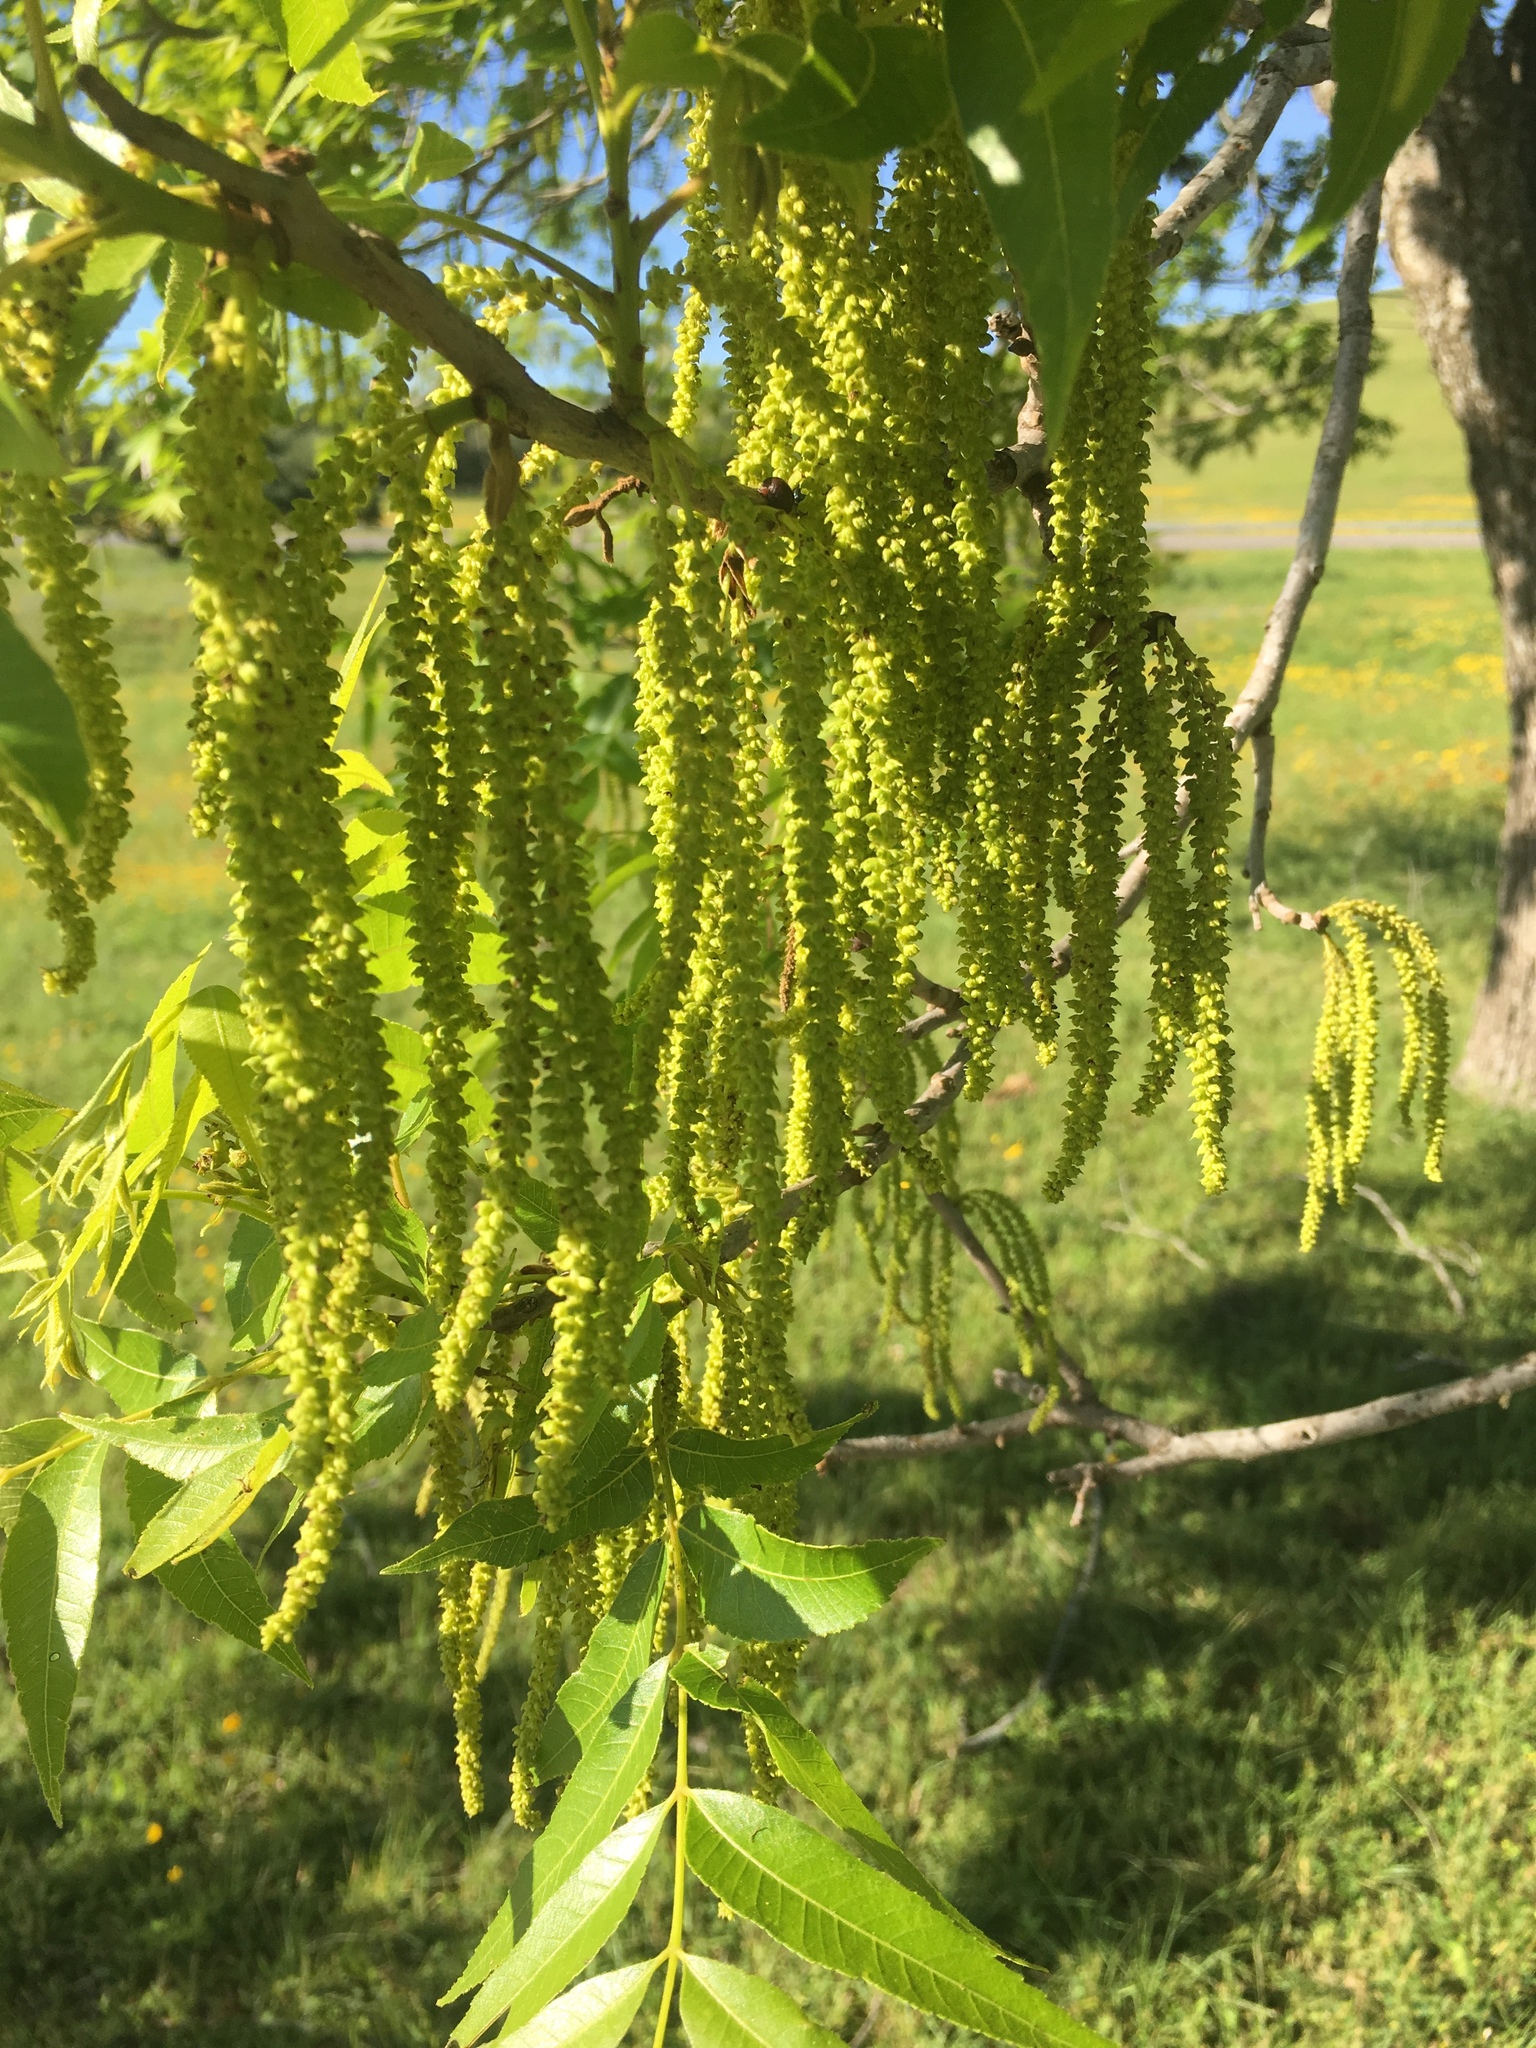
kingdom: Plantae
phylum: Tracheophyta
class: Magnoliopsida
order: Fagales
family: Juglandaceae
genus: Carya
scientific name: Carya illinoinensis
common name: Pecan
